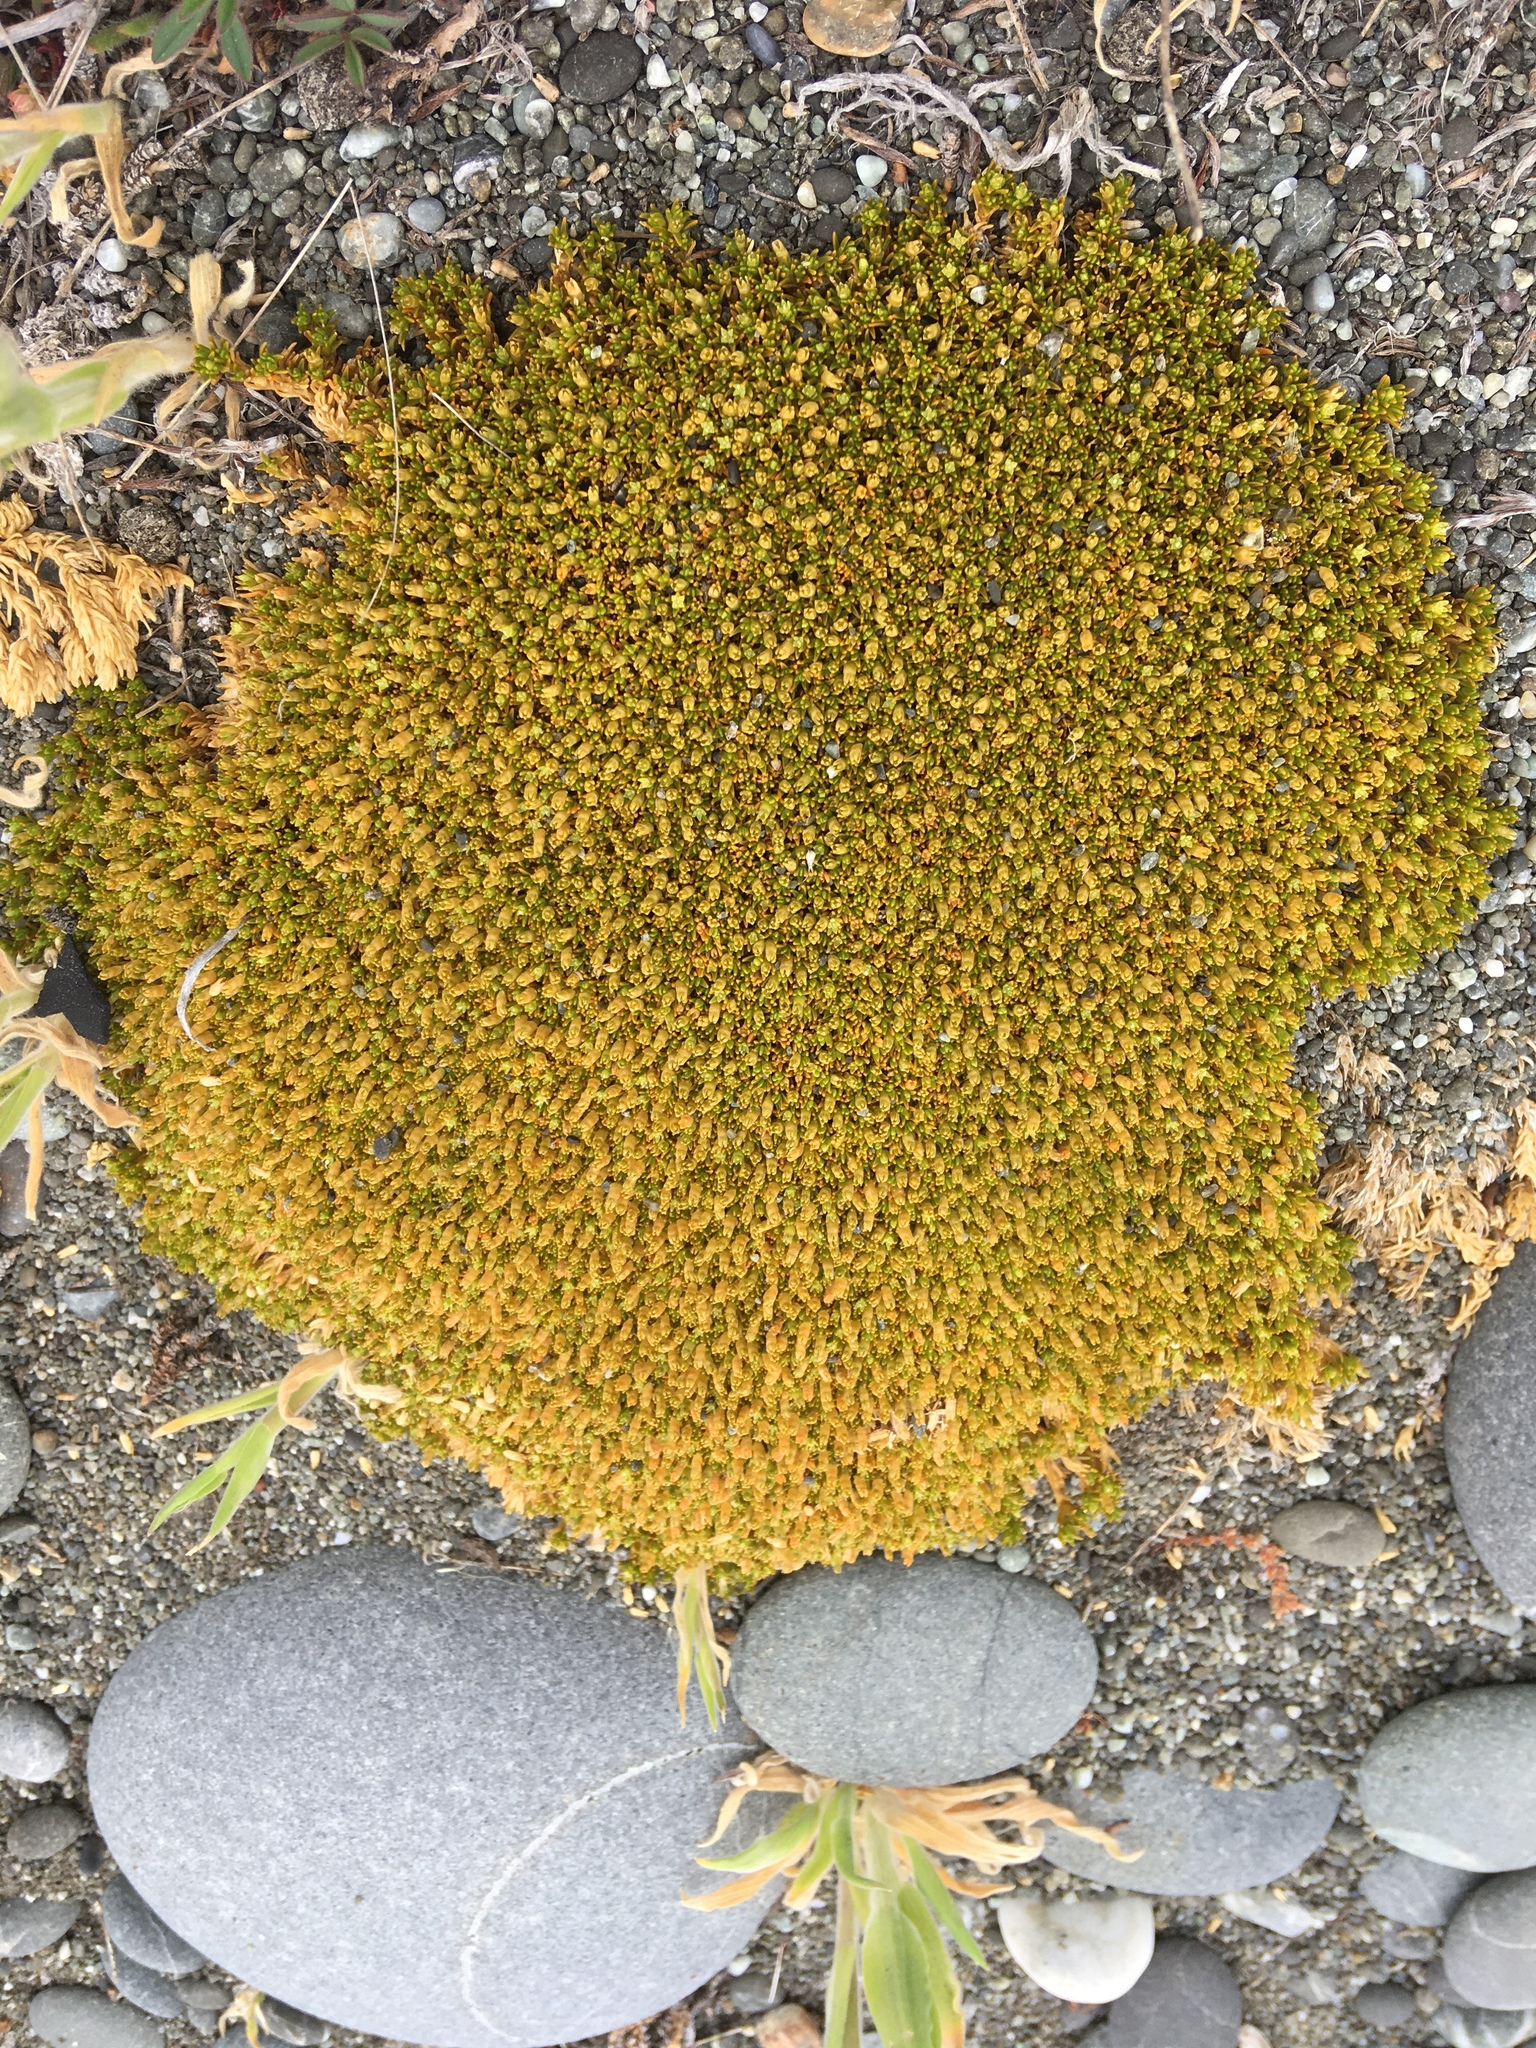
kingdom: Plantae
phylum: Tracheophyta
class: Magnoliopsida
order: Caryophyllales
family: Caryophyllaceae
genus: Scleranthus
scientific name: Scleranthus uniflorus
